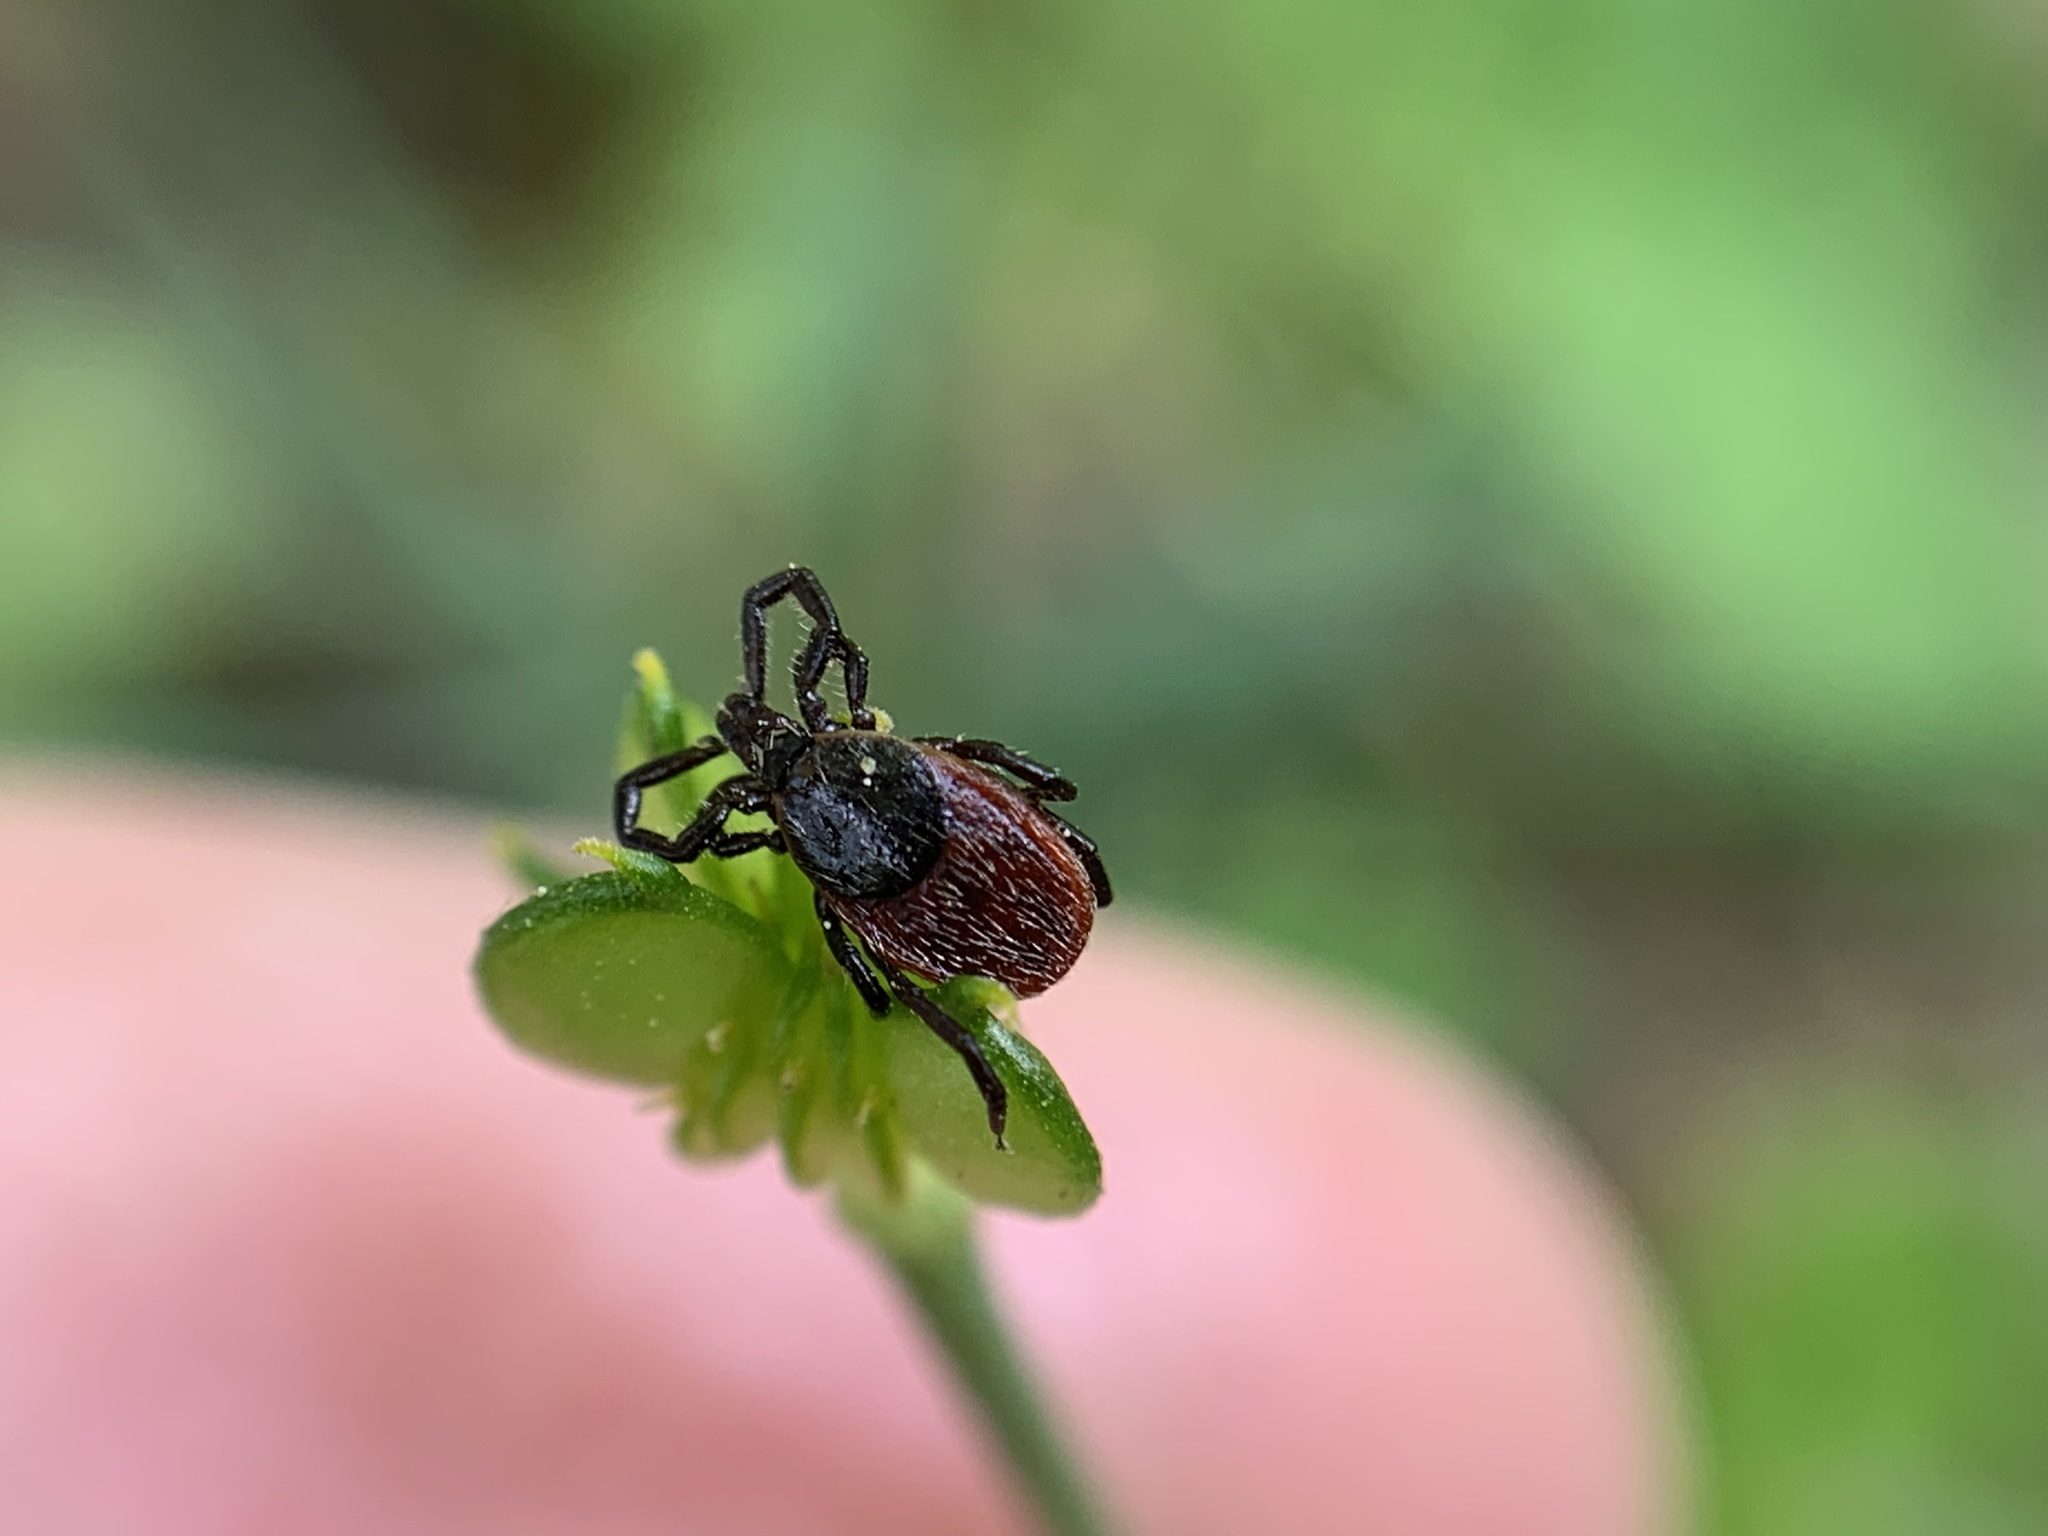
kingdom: Animalia
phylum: Arthropoda
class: Arachnida
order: Ixodida
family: Ixodidae
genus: Ixodes
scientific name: Ixodes pacificus
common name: California black-legged tick
